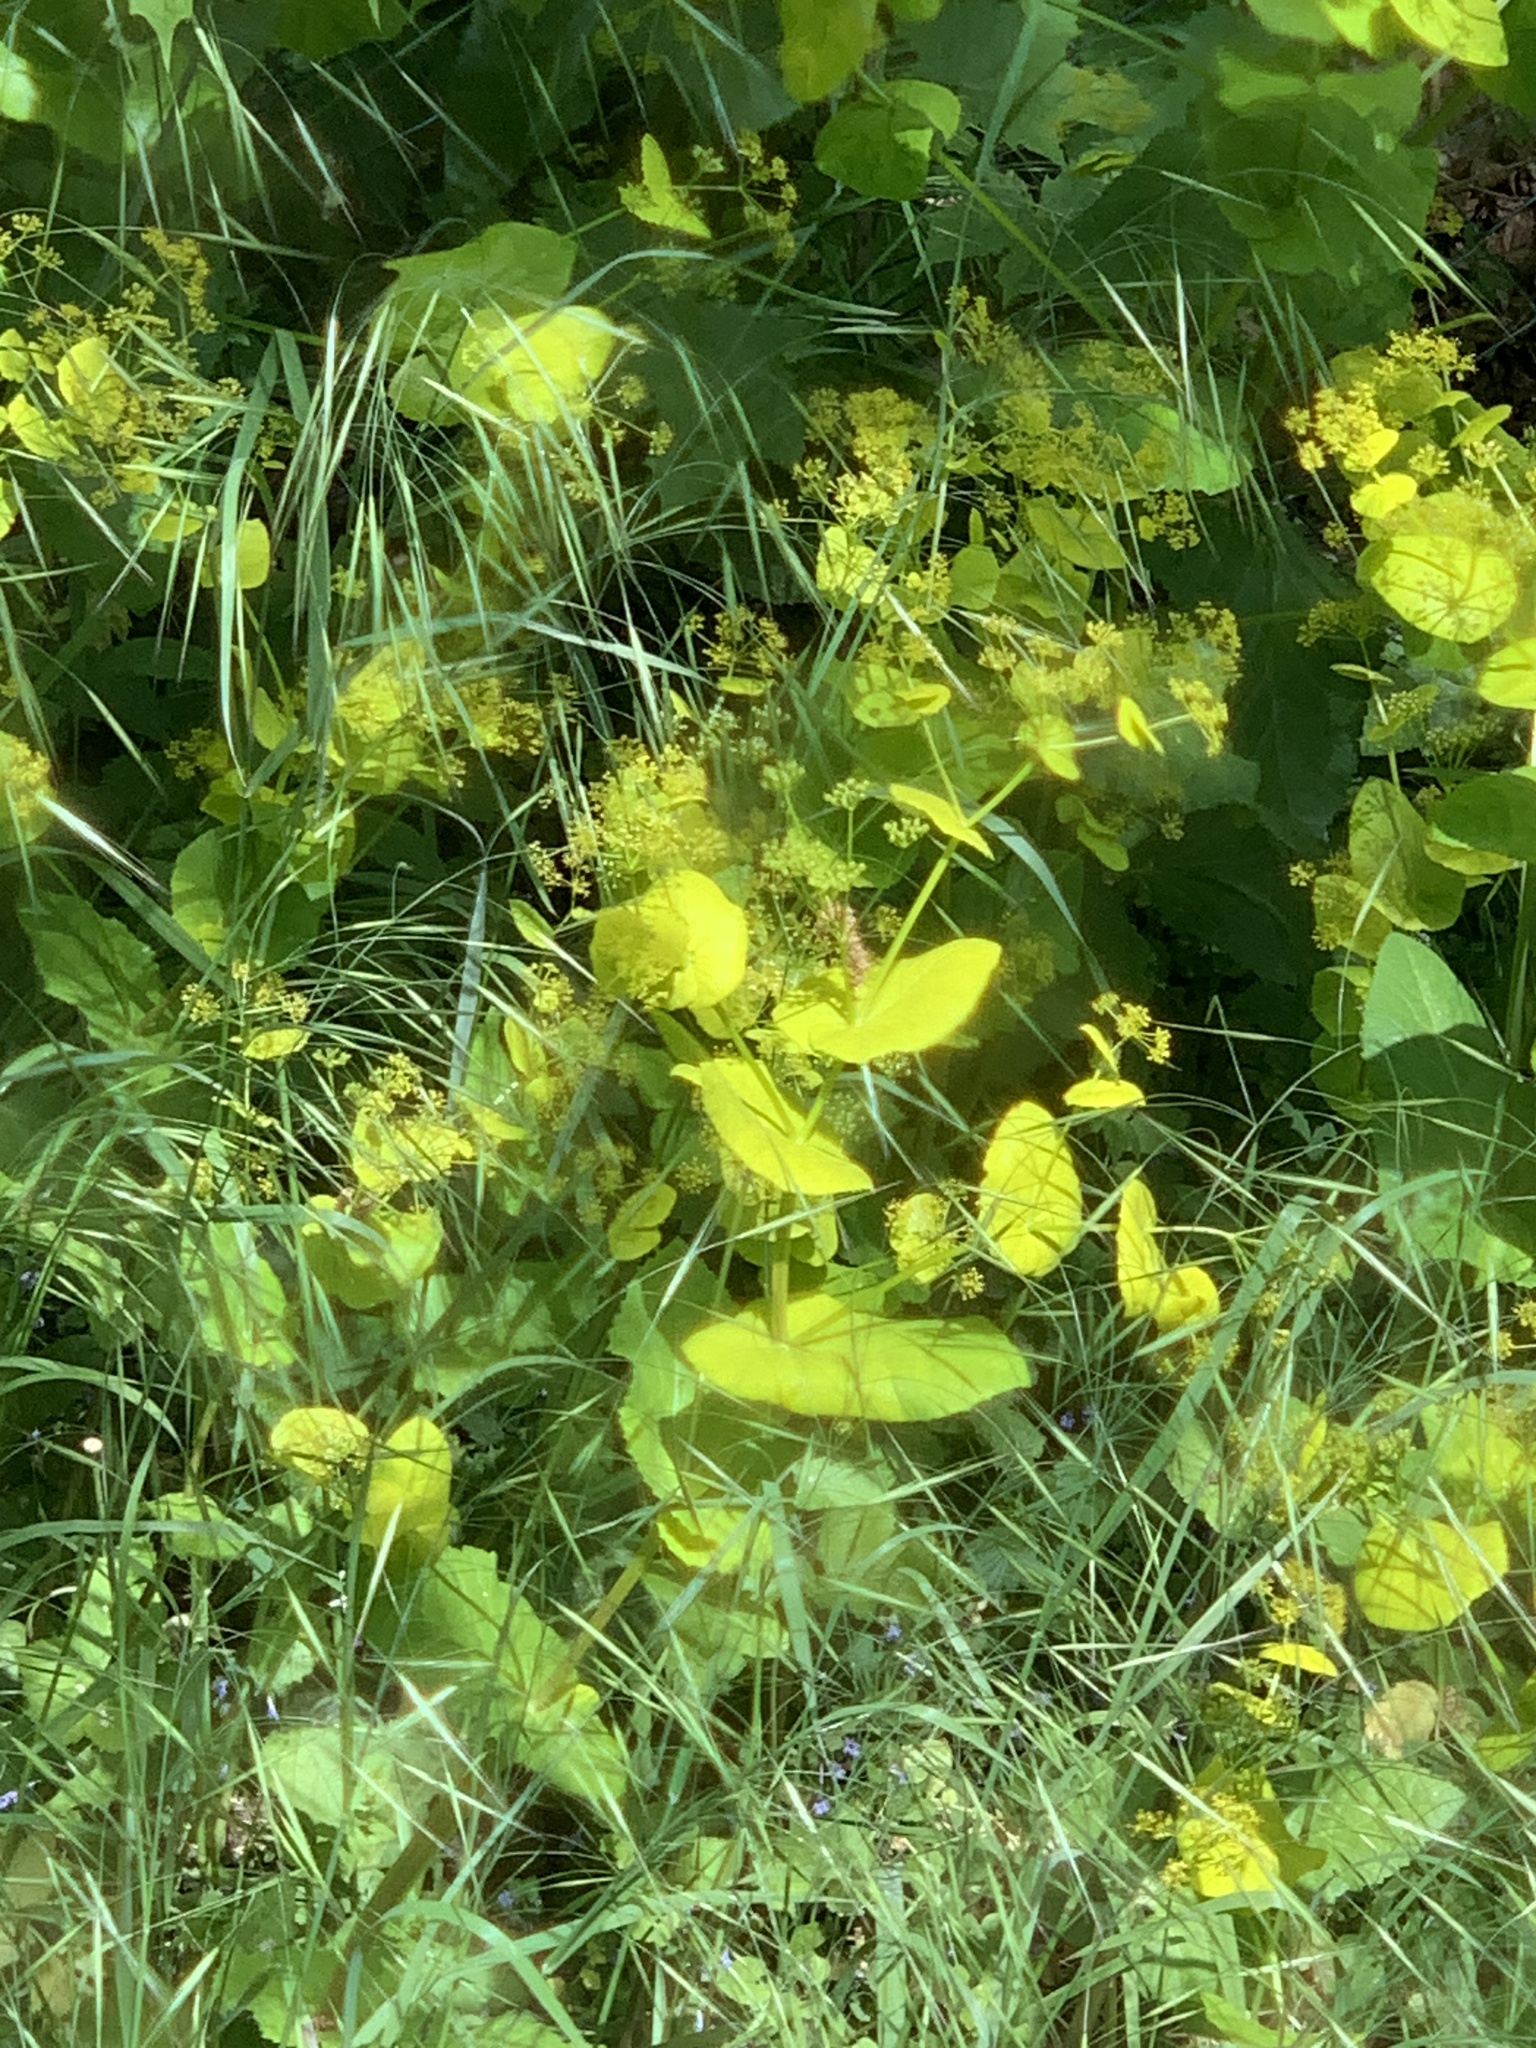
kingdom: Plantae
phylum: Tracheophyta
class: Magnoliopsida
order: Apiales
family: Apiaceae
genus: Smyrnium
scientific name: Smyrnium perfoliatum
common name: Perfoliate alexanders
